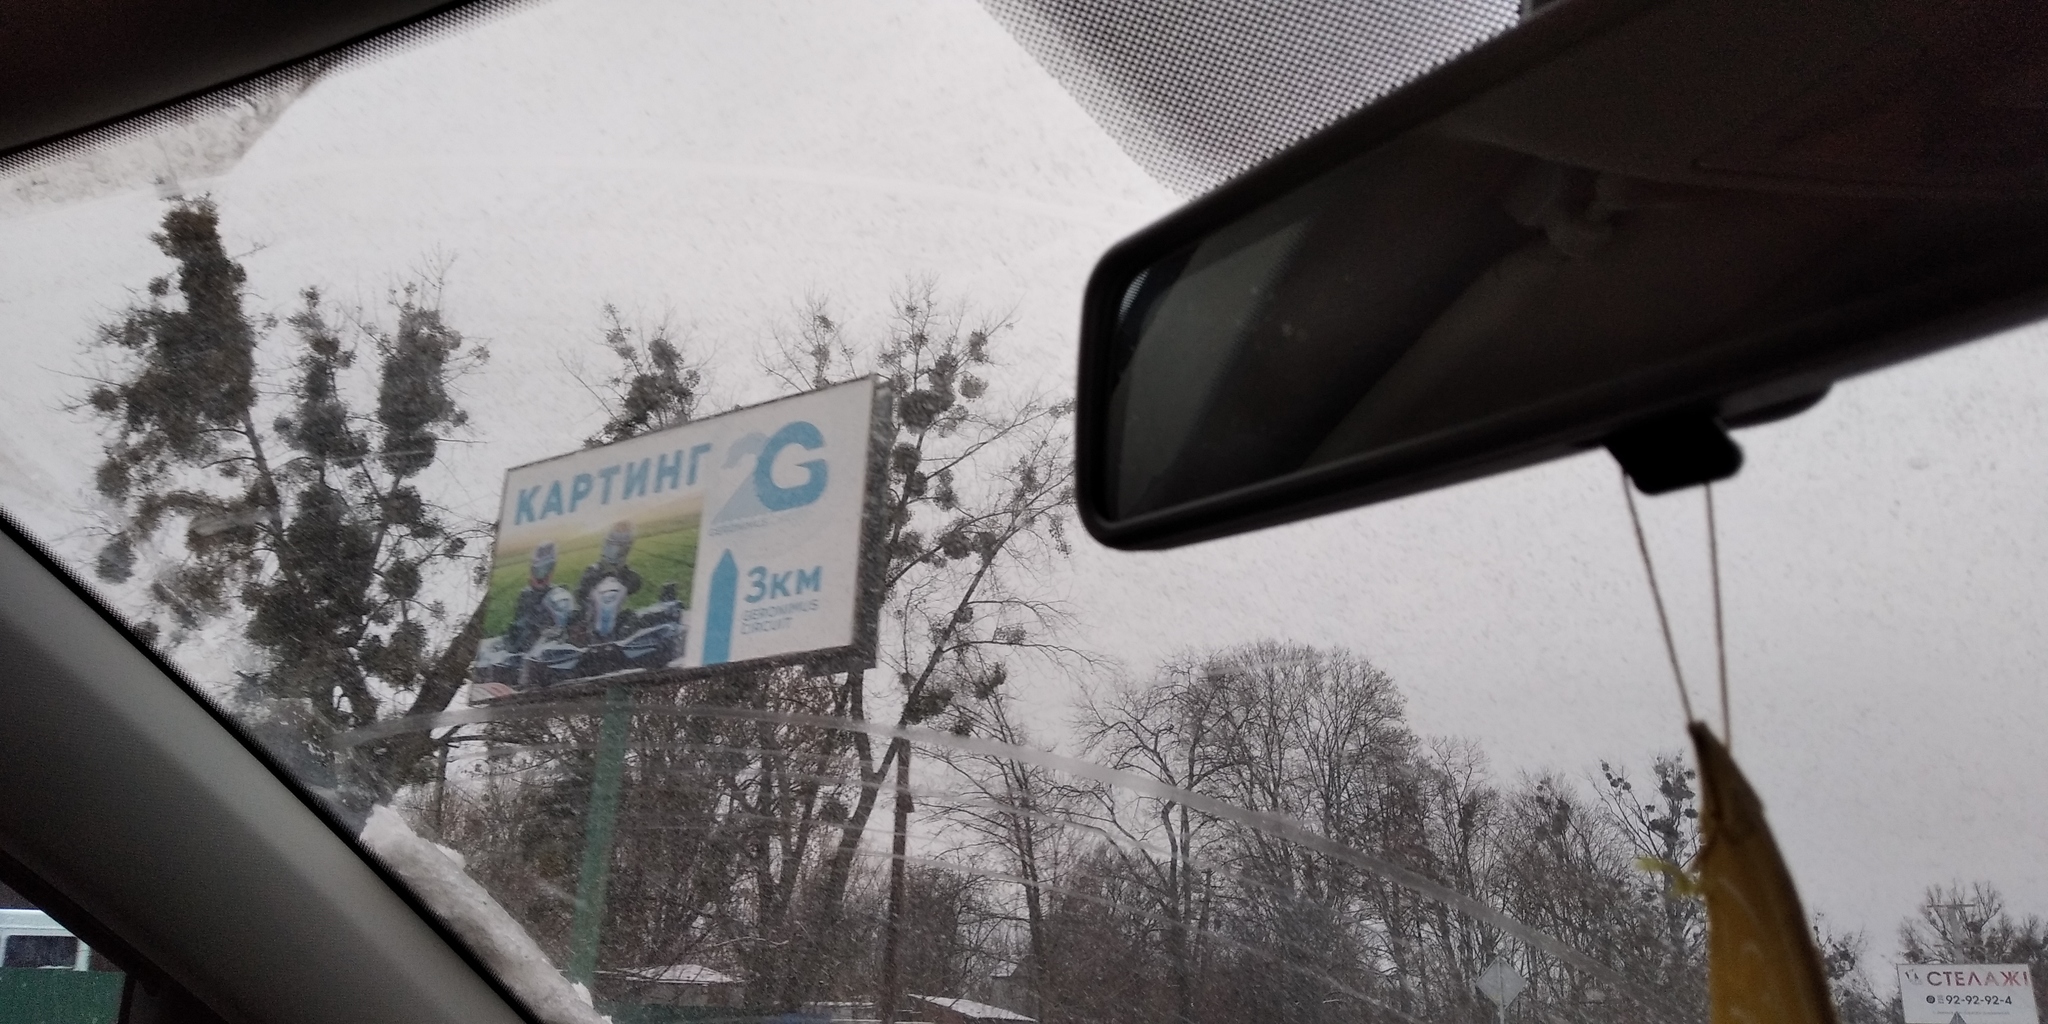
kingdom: Plantae
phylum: Tracheophyta
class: Magnoliopsida
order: Santalales
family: Viscaceae
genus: Viscum
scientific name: Viscum album
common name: Mistletoe
